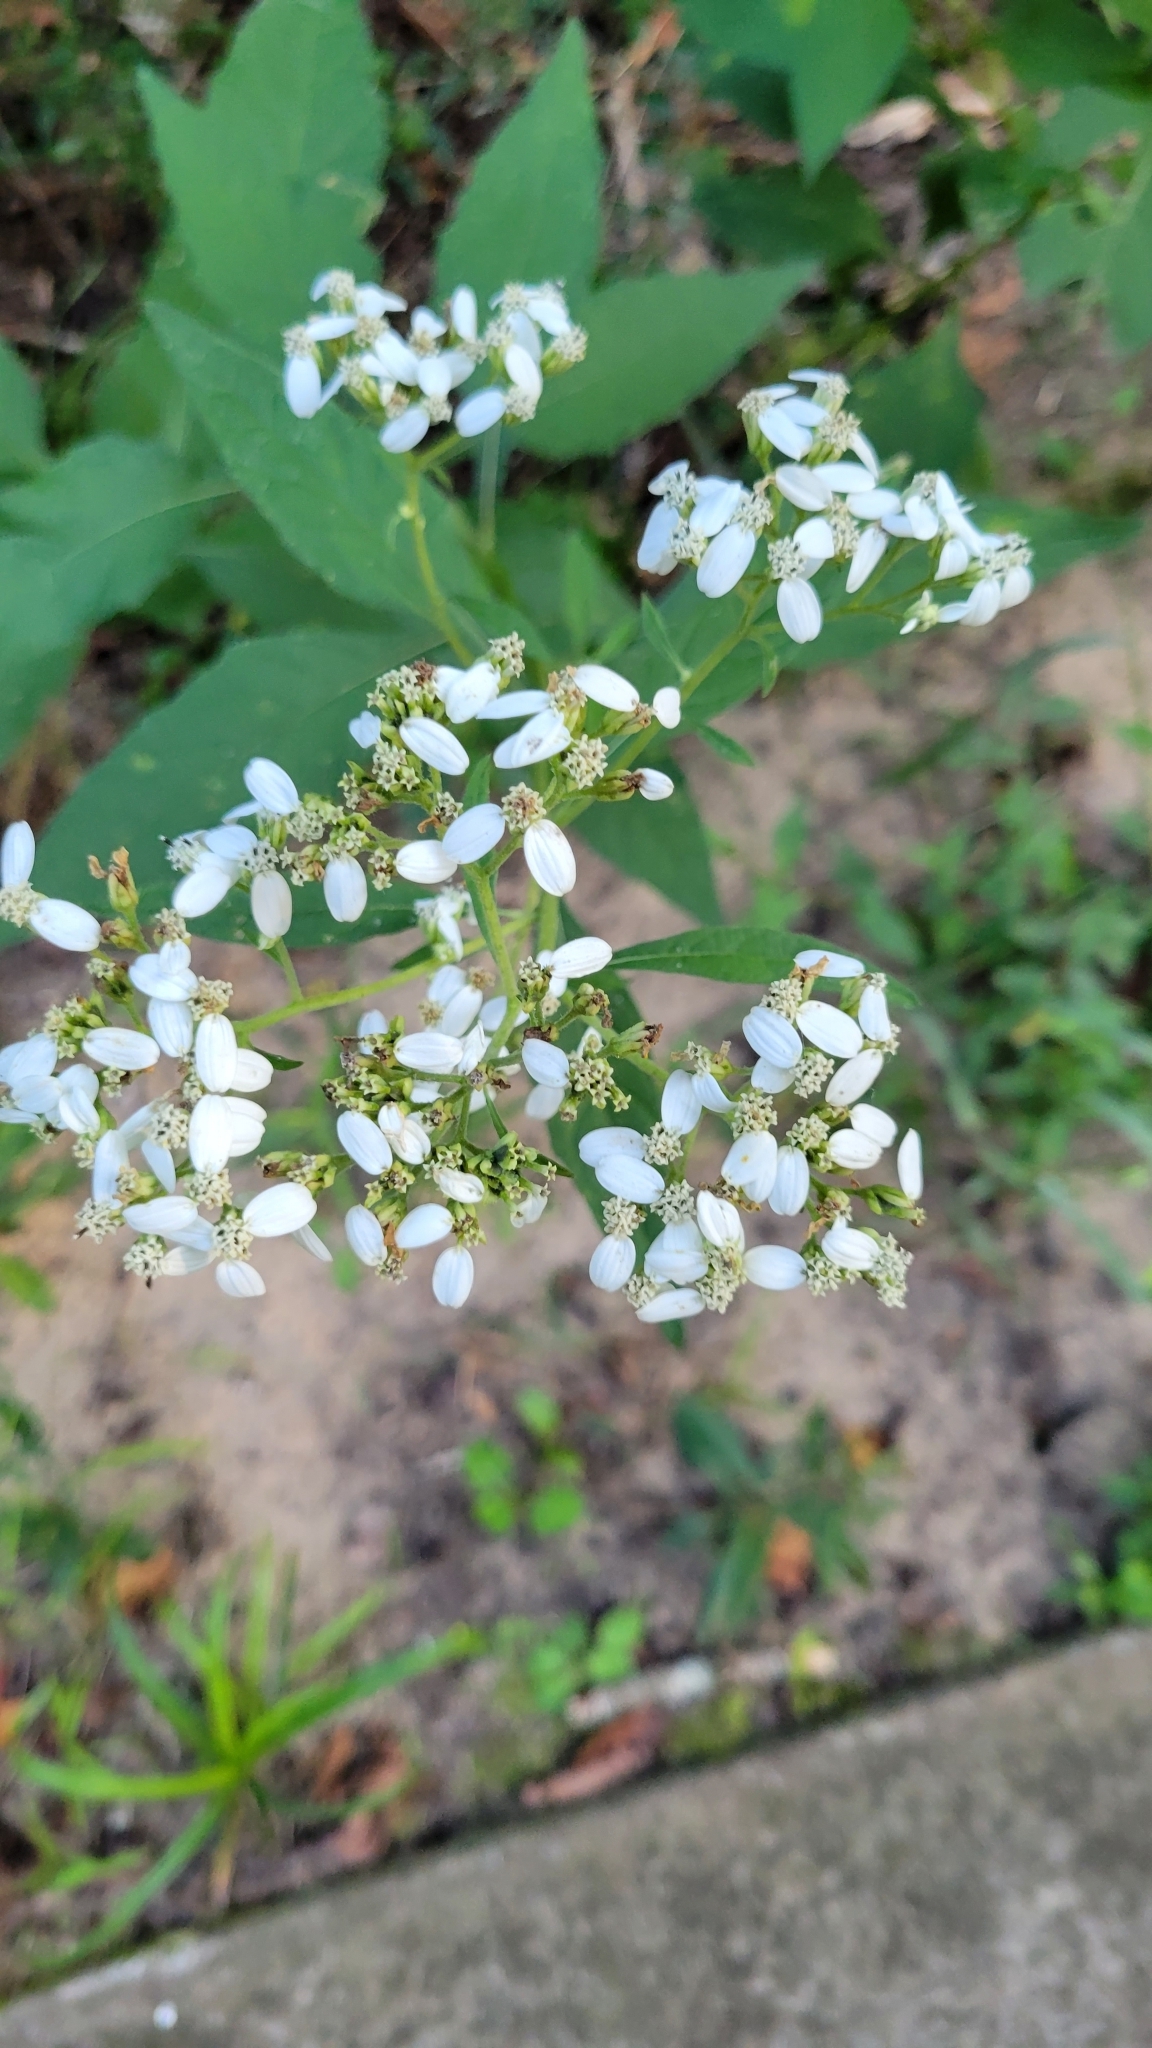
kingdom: Plantae
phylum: Tracheophyta
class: Magnoliopsida
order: Asterales
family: Asteraceae
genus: Verbesina
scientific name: Verbesina virginica
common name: Frostweed
